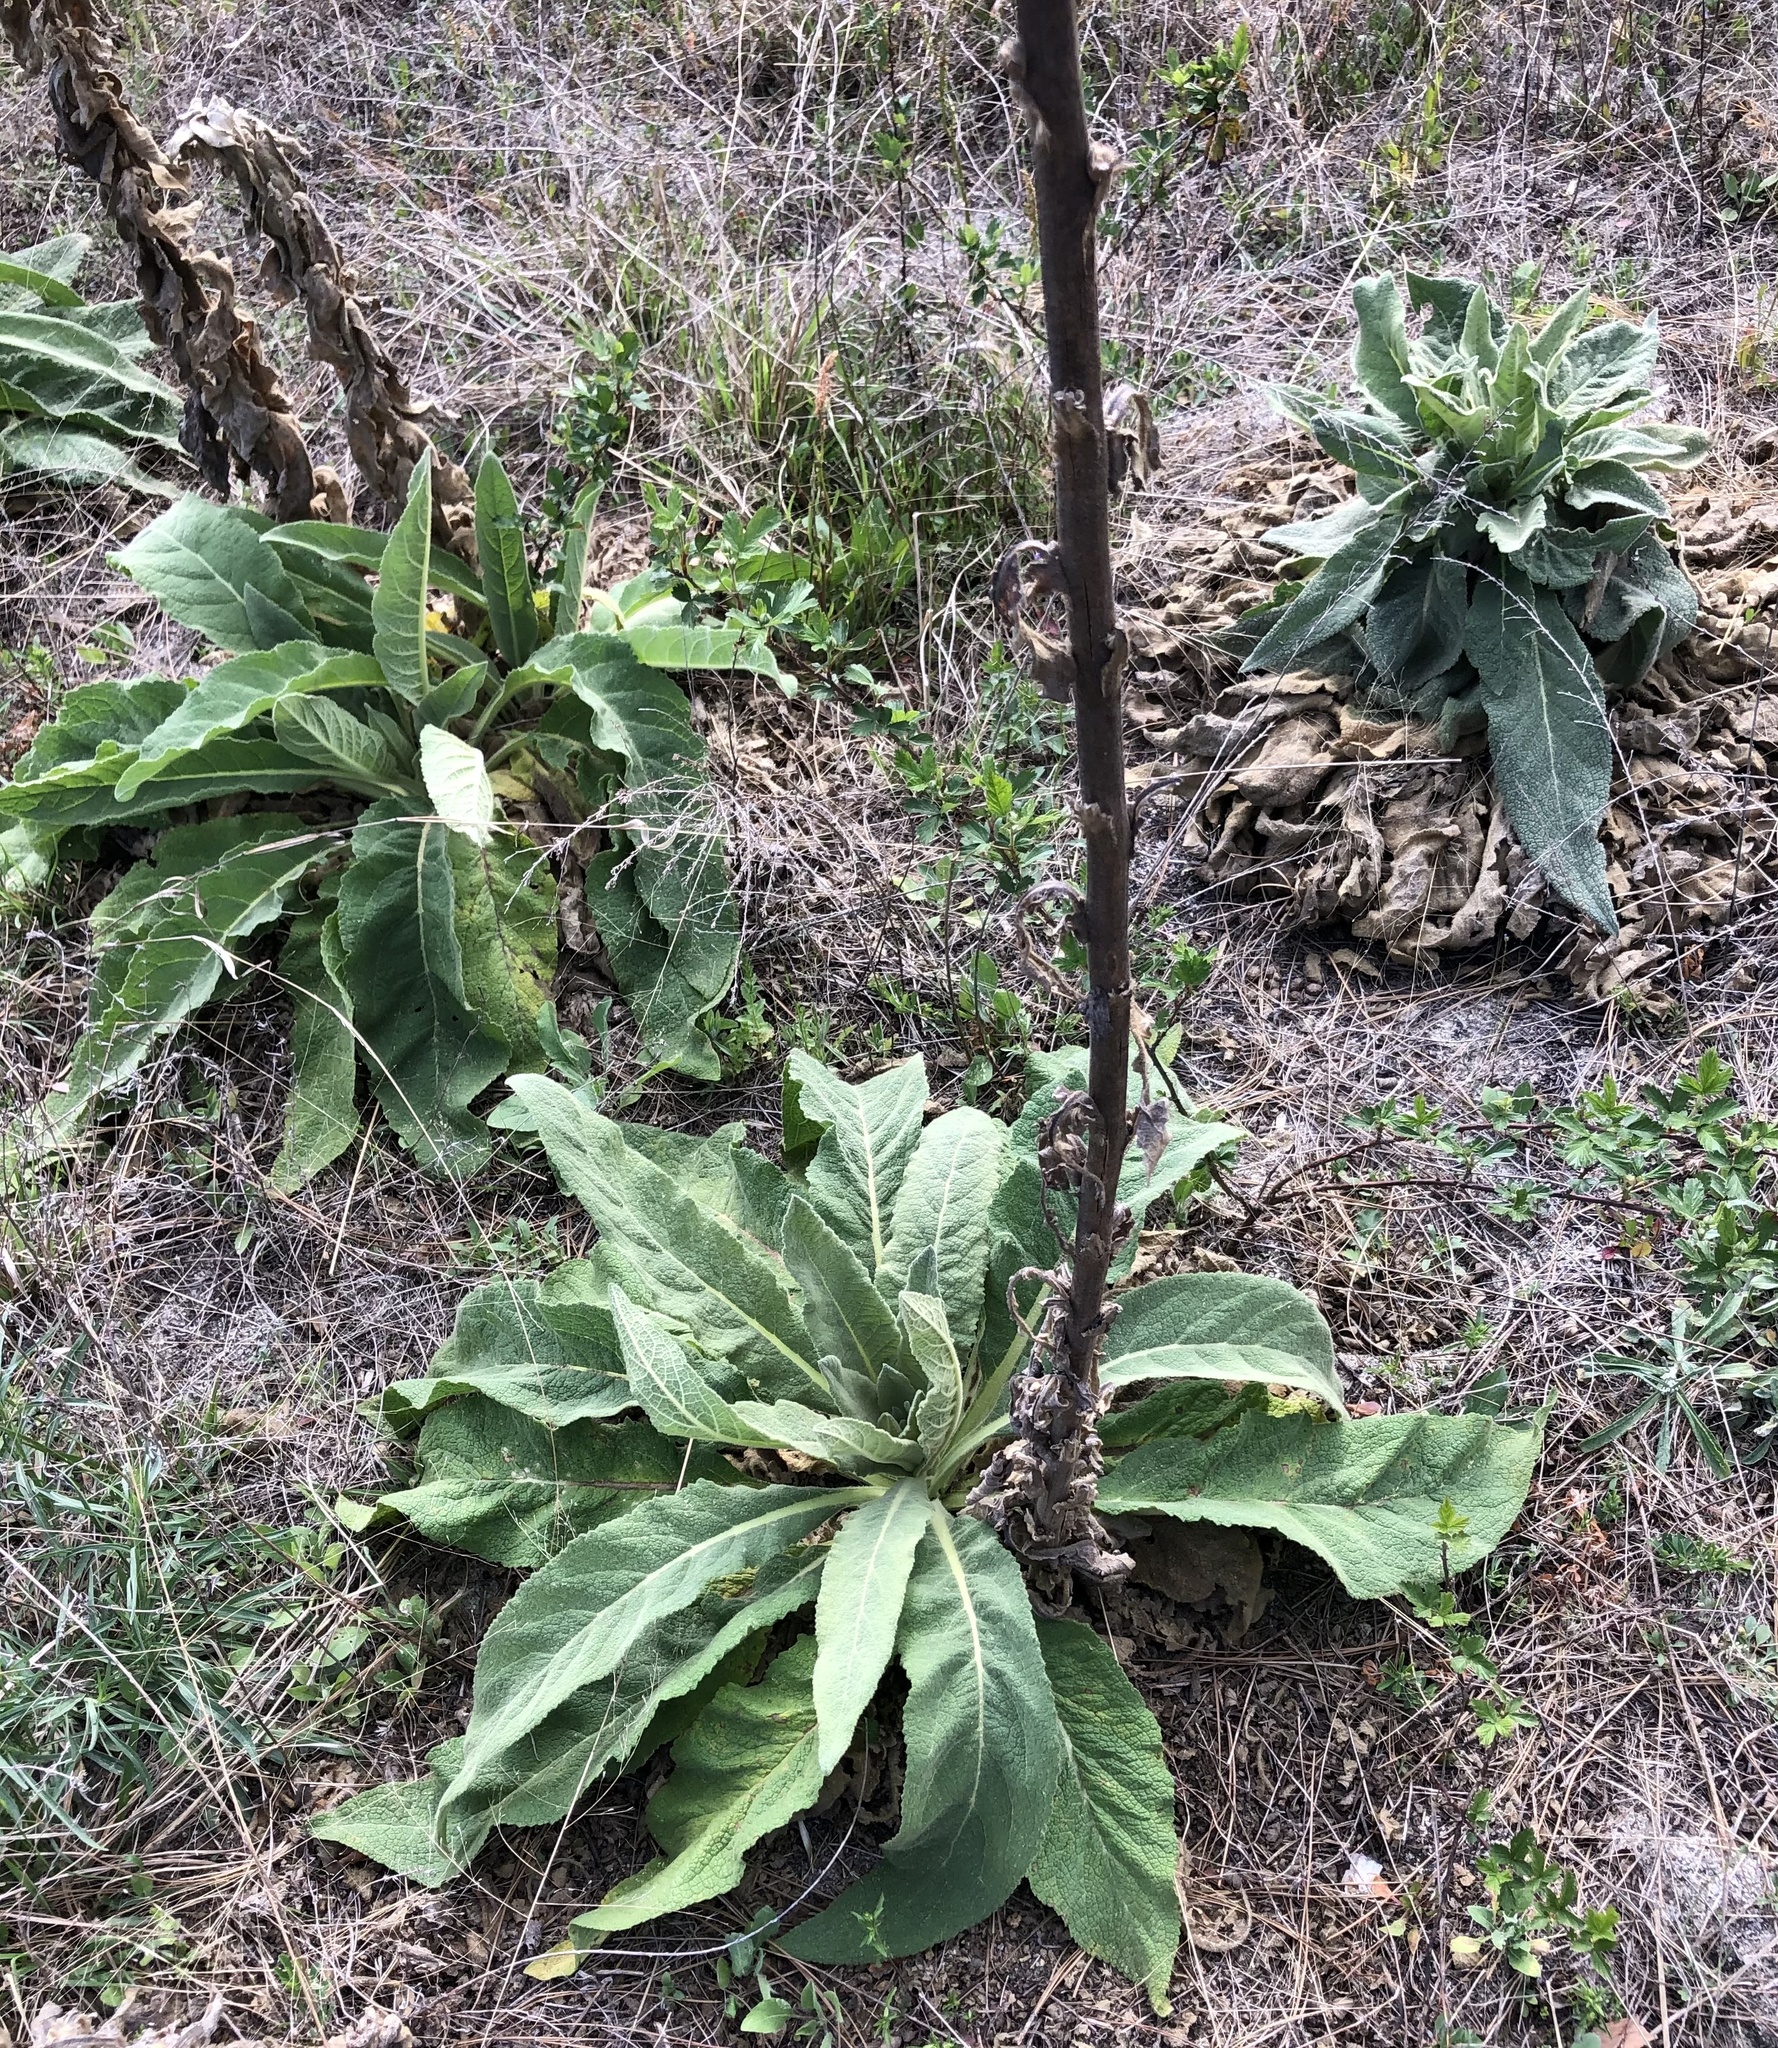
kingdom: Plantae
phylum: Tracheophyta
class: Magnoliopsida
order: Lamiales
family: Scrophulariaceae
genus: Verbascum
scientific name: Verbascum thapsus
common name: Common mullein
